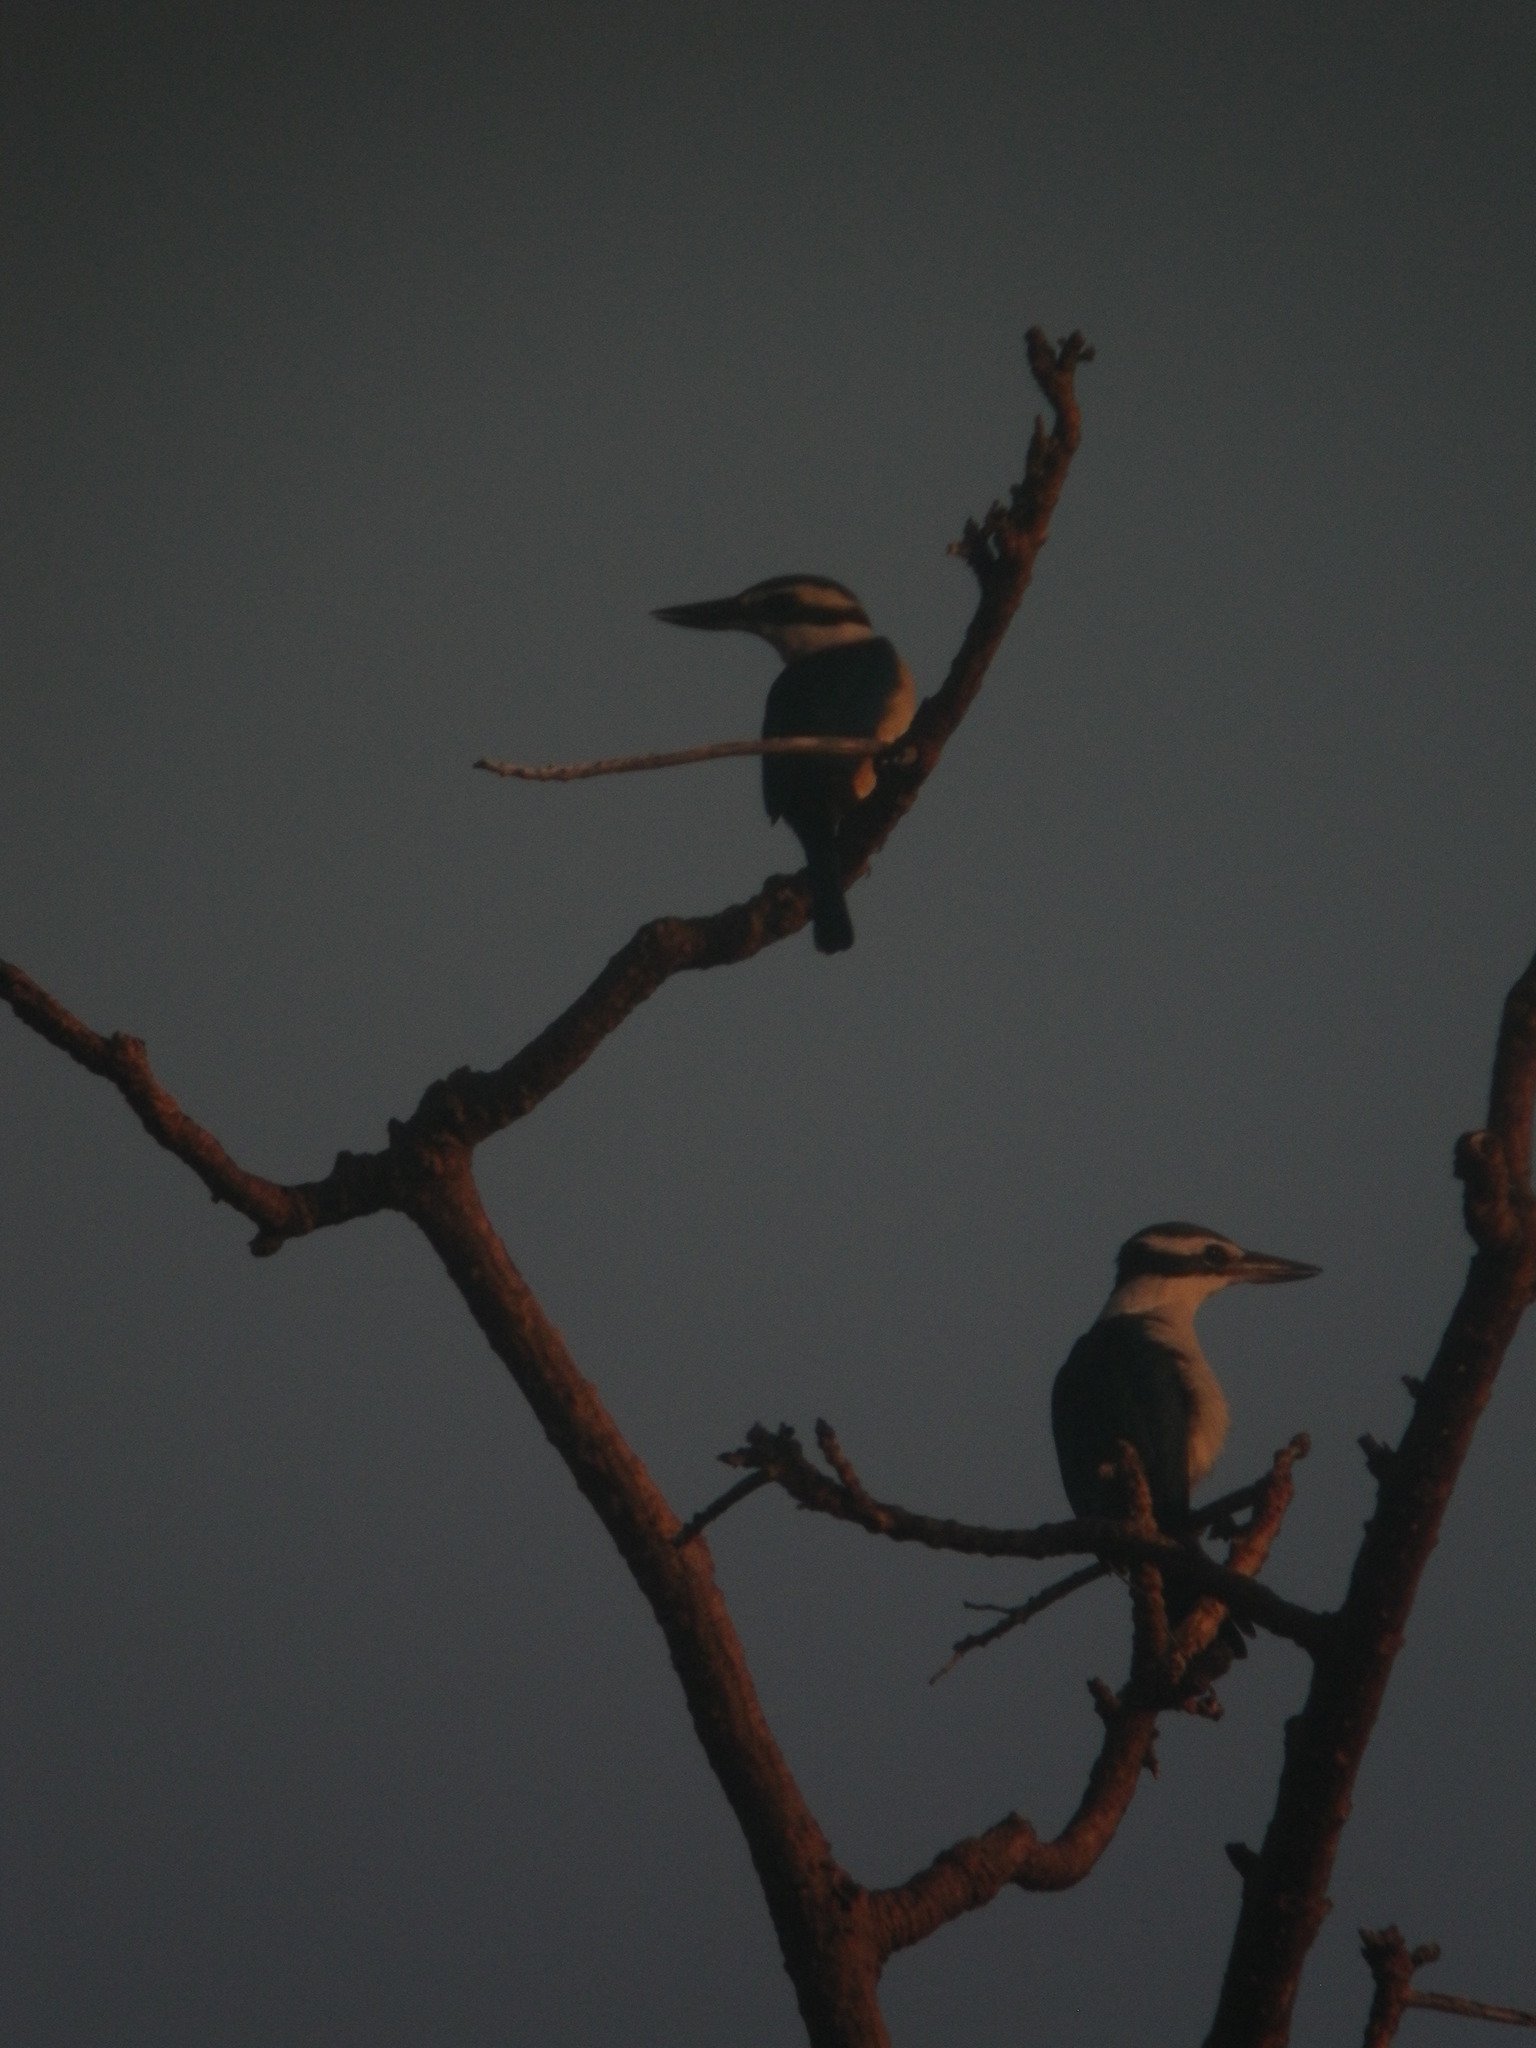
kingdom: Animalia
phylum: Chordata
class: Aves
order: Coraciiformes
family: Alcedinidae
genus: Todiramphus
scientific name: Todiramphus sacer
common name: Pacific kingfisher
